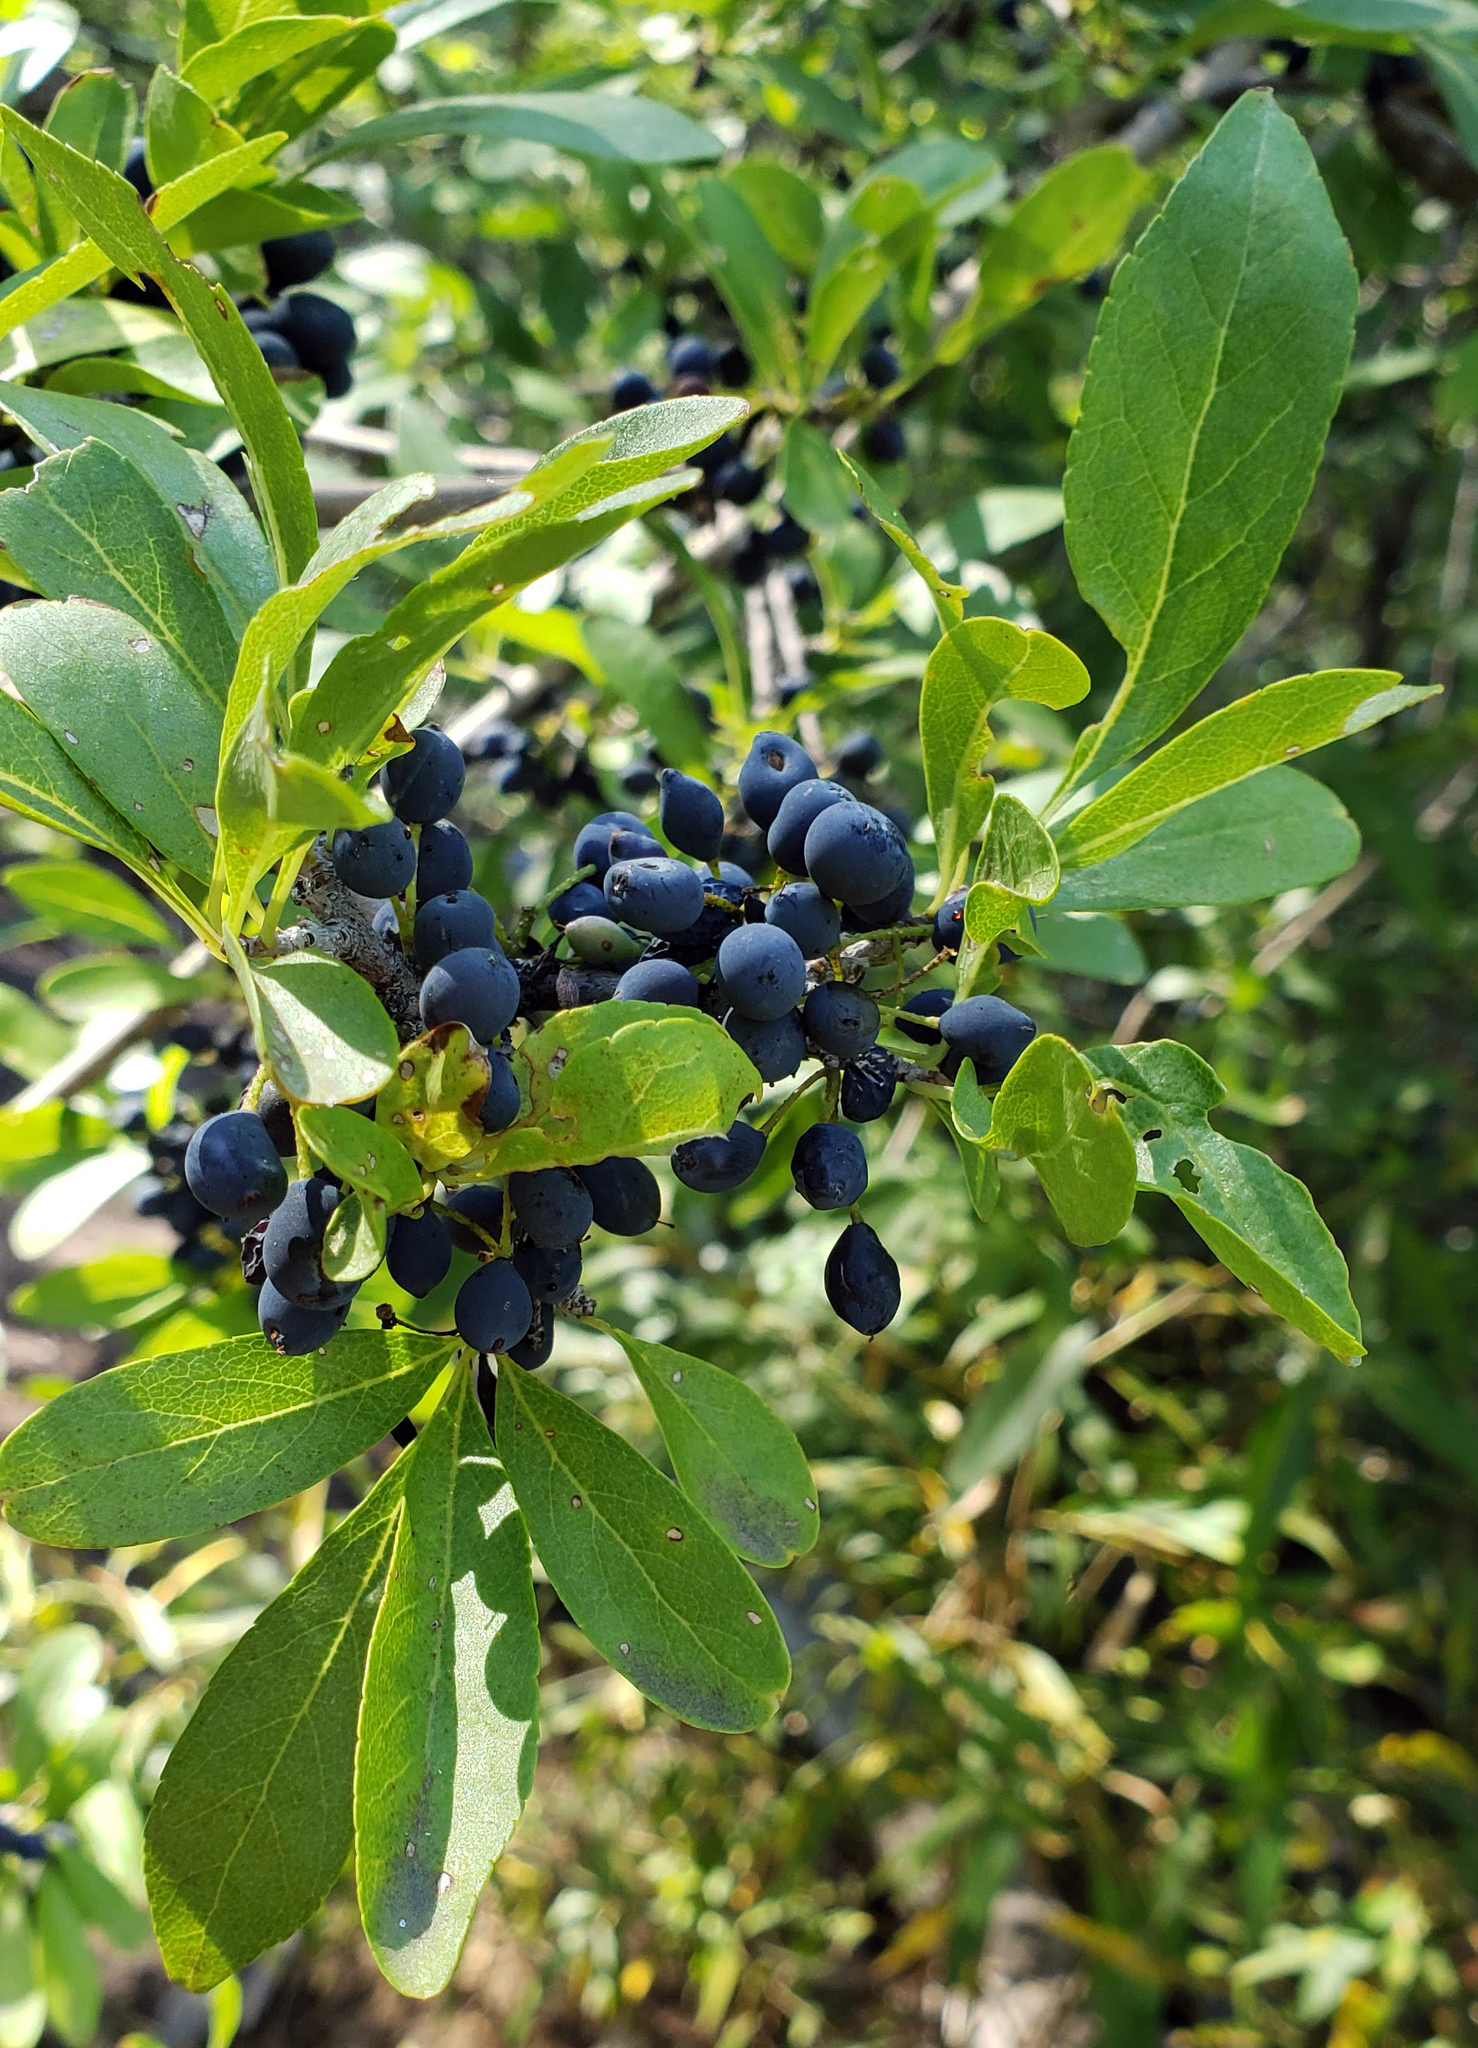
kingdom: Plantae
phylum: Tracheophyta
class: Magnoliopsida
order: Lamiales
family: Oleaceae
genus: Forestiera
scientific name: Forestiera pubescens
